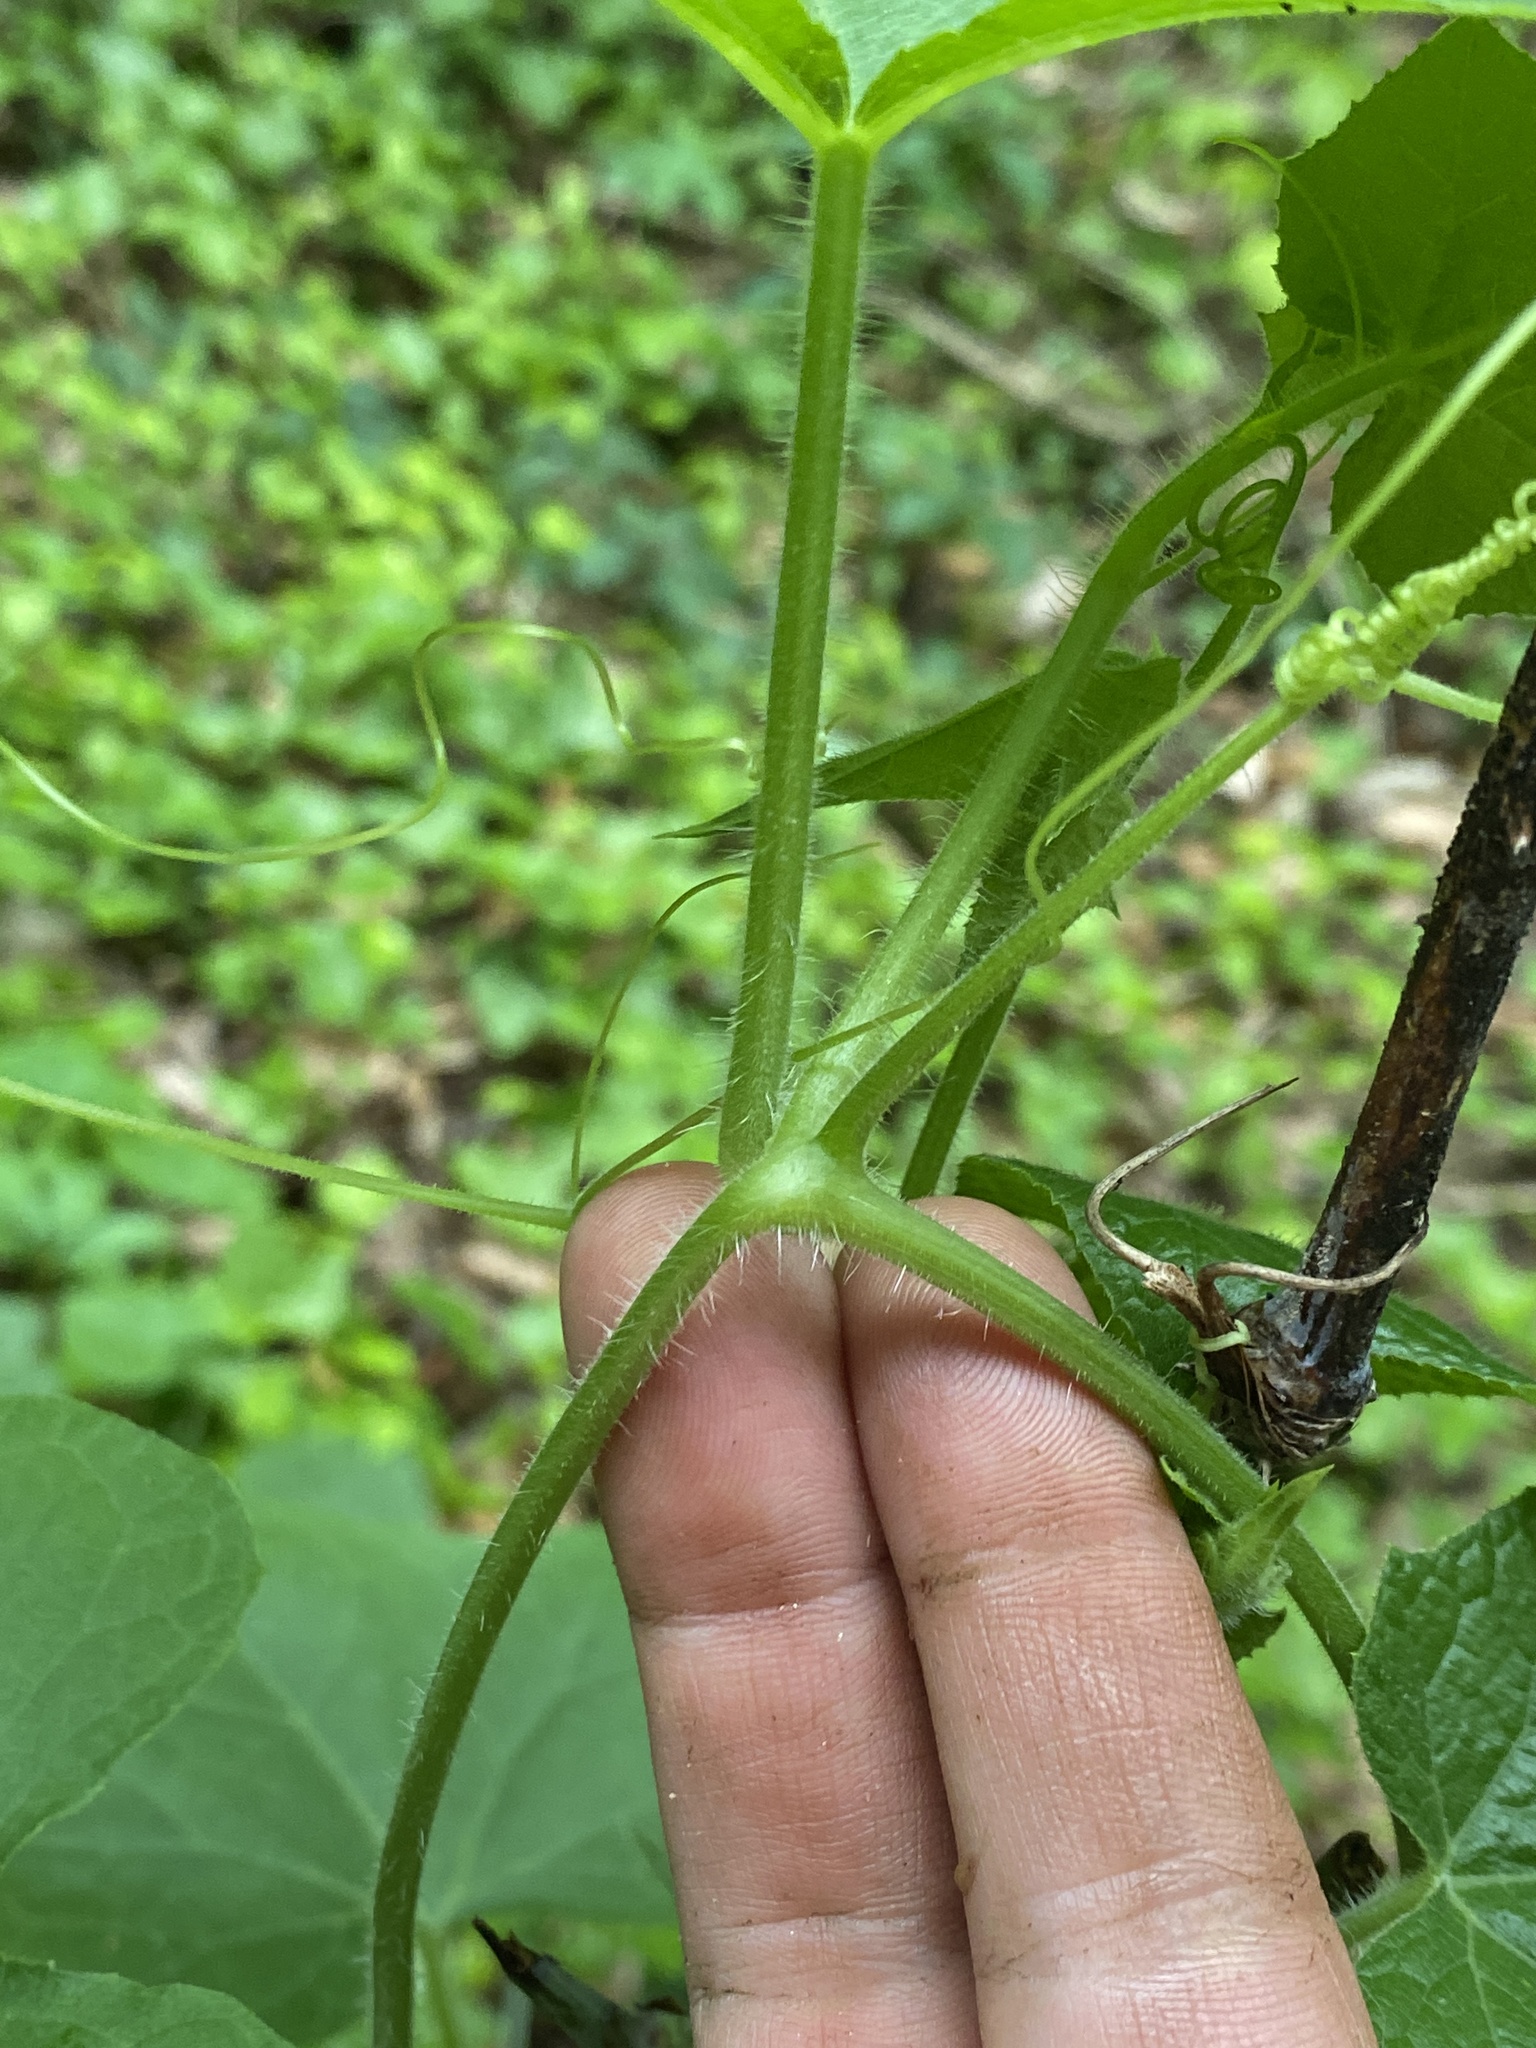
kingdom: Plantae
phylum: Tracheophyta
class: Magnoliopsida
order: Cucurbitales
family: Cucurbitaceae
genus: Sicyos
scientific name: Sicyos angulatus
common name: Angled burr cucumber
